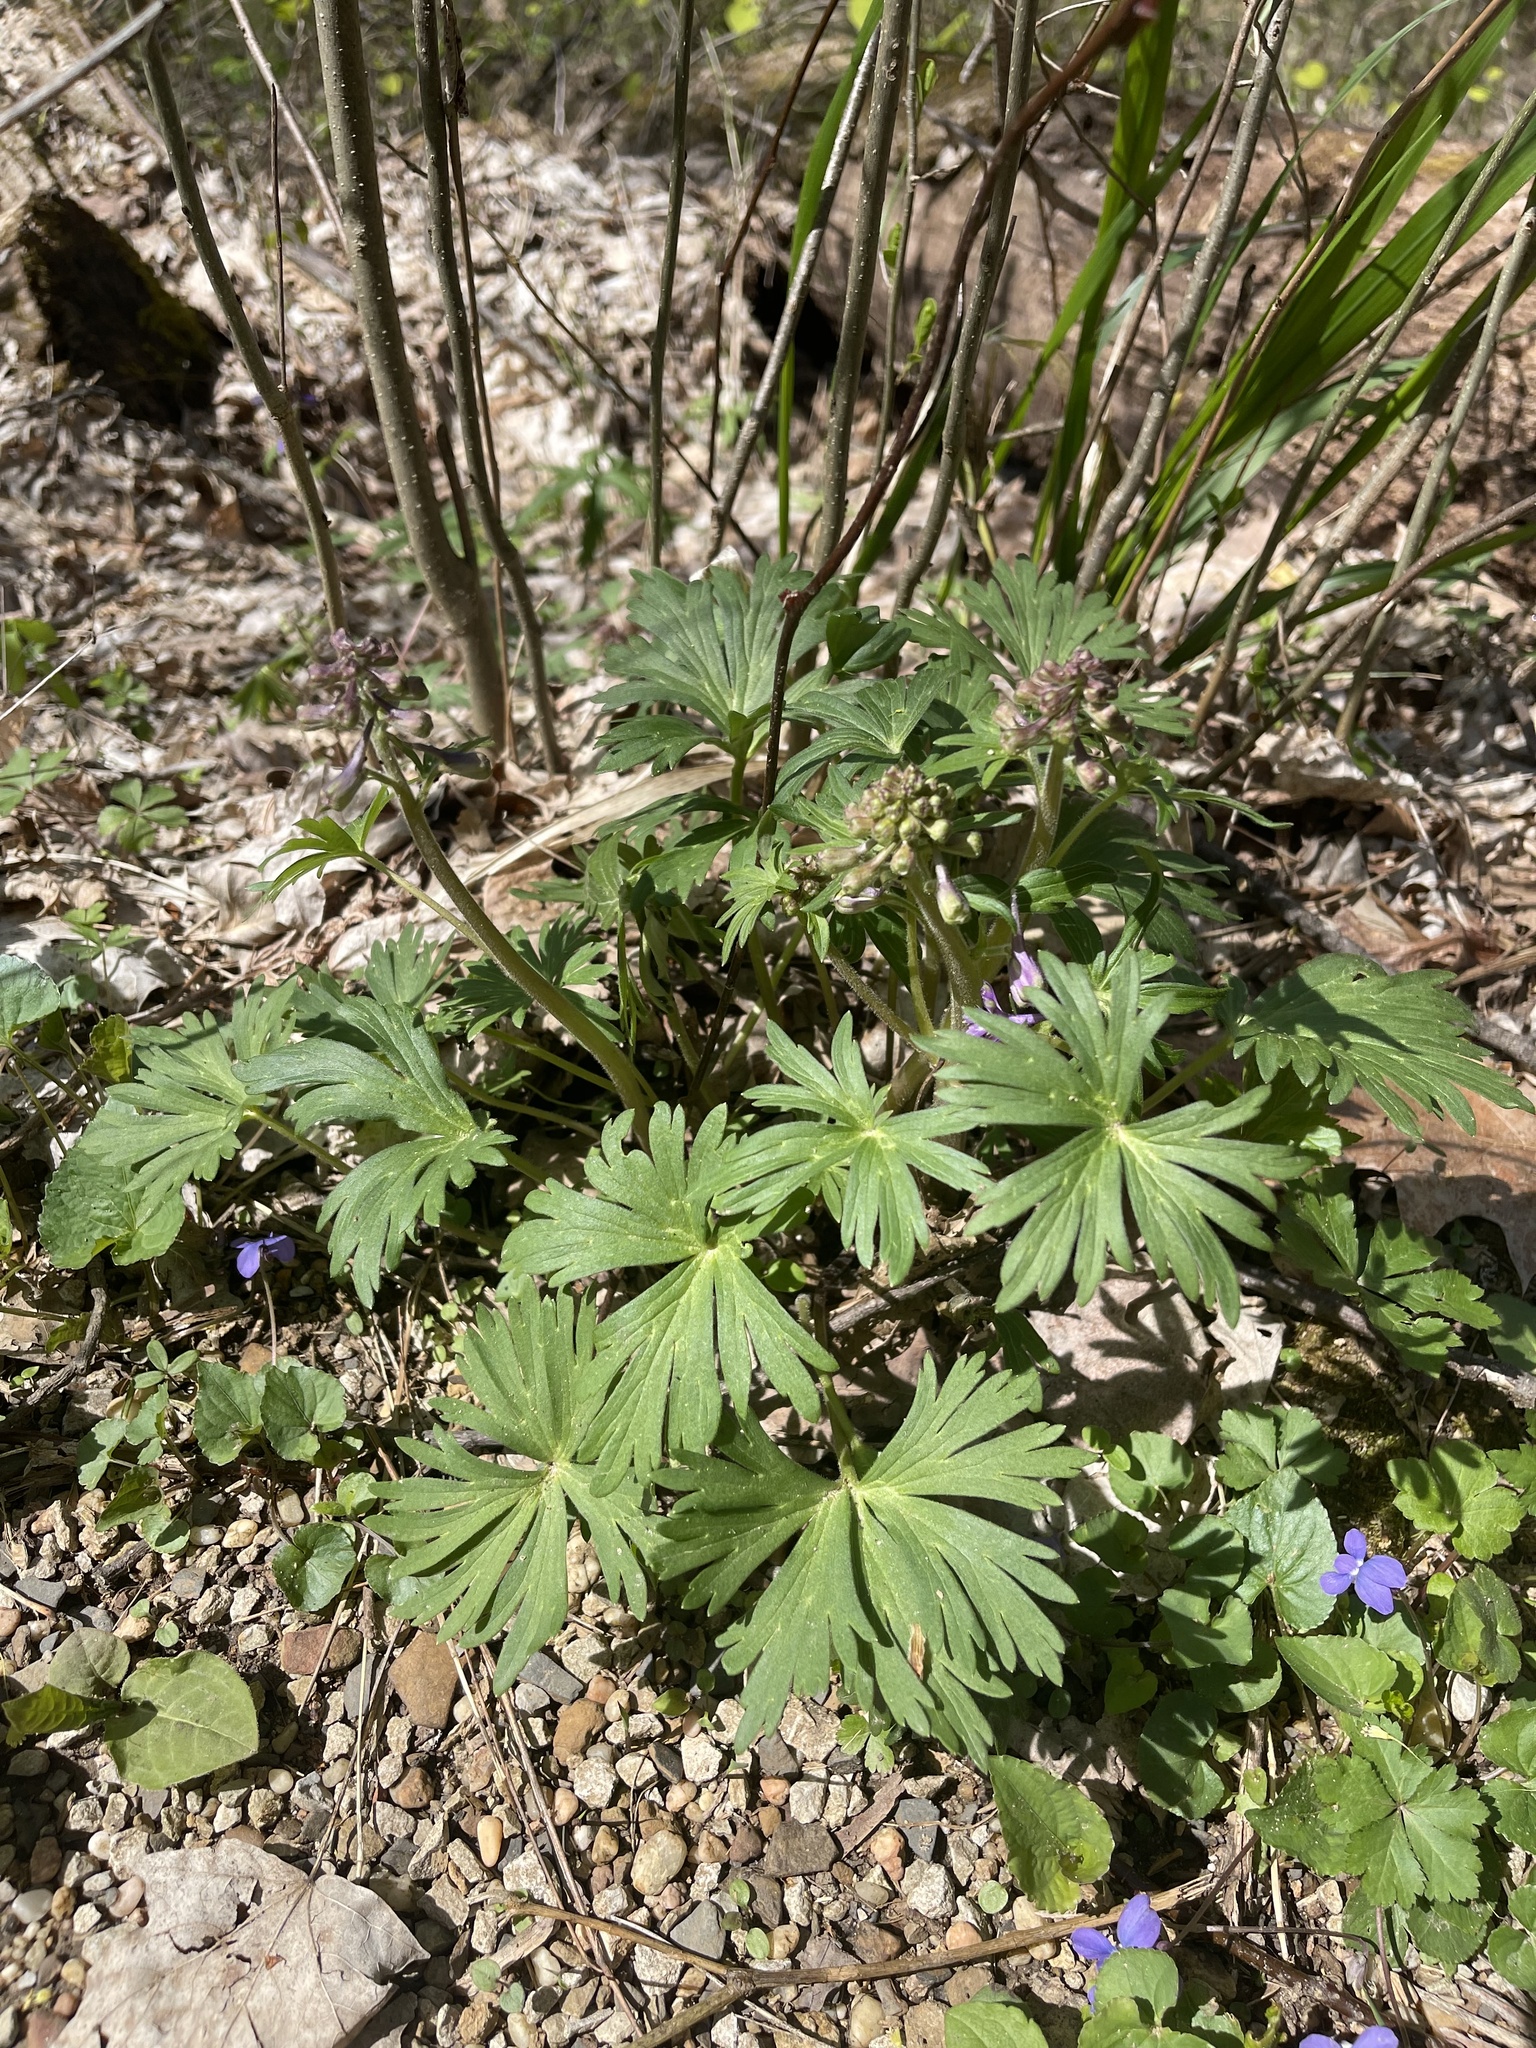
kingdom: Plantae
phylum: Tracheophyta
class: Magnoliopsida
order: Ranunculales
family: Ranunculaceae
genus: Delphinium
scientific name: Delphinium tricorne
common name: Dwarf larkspur
